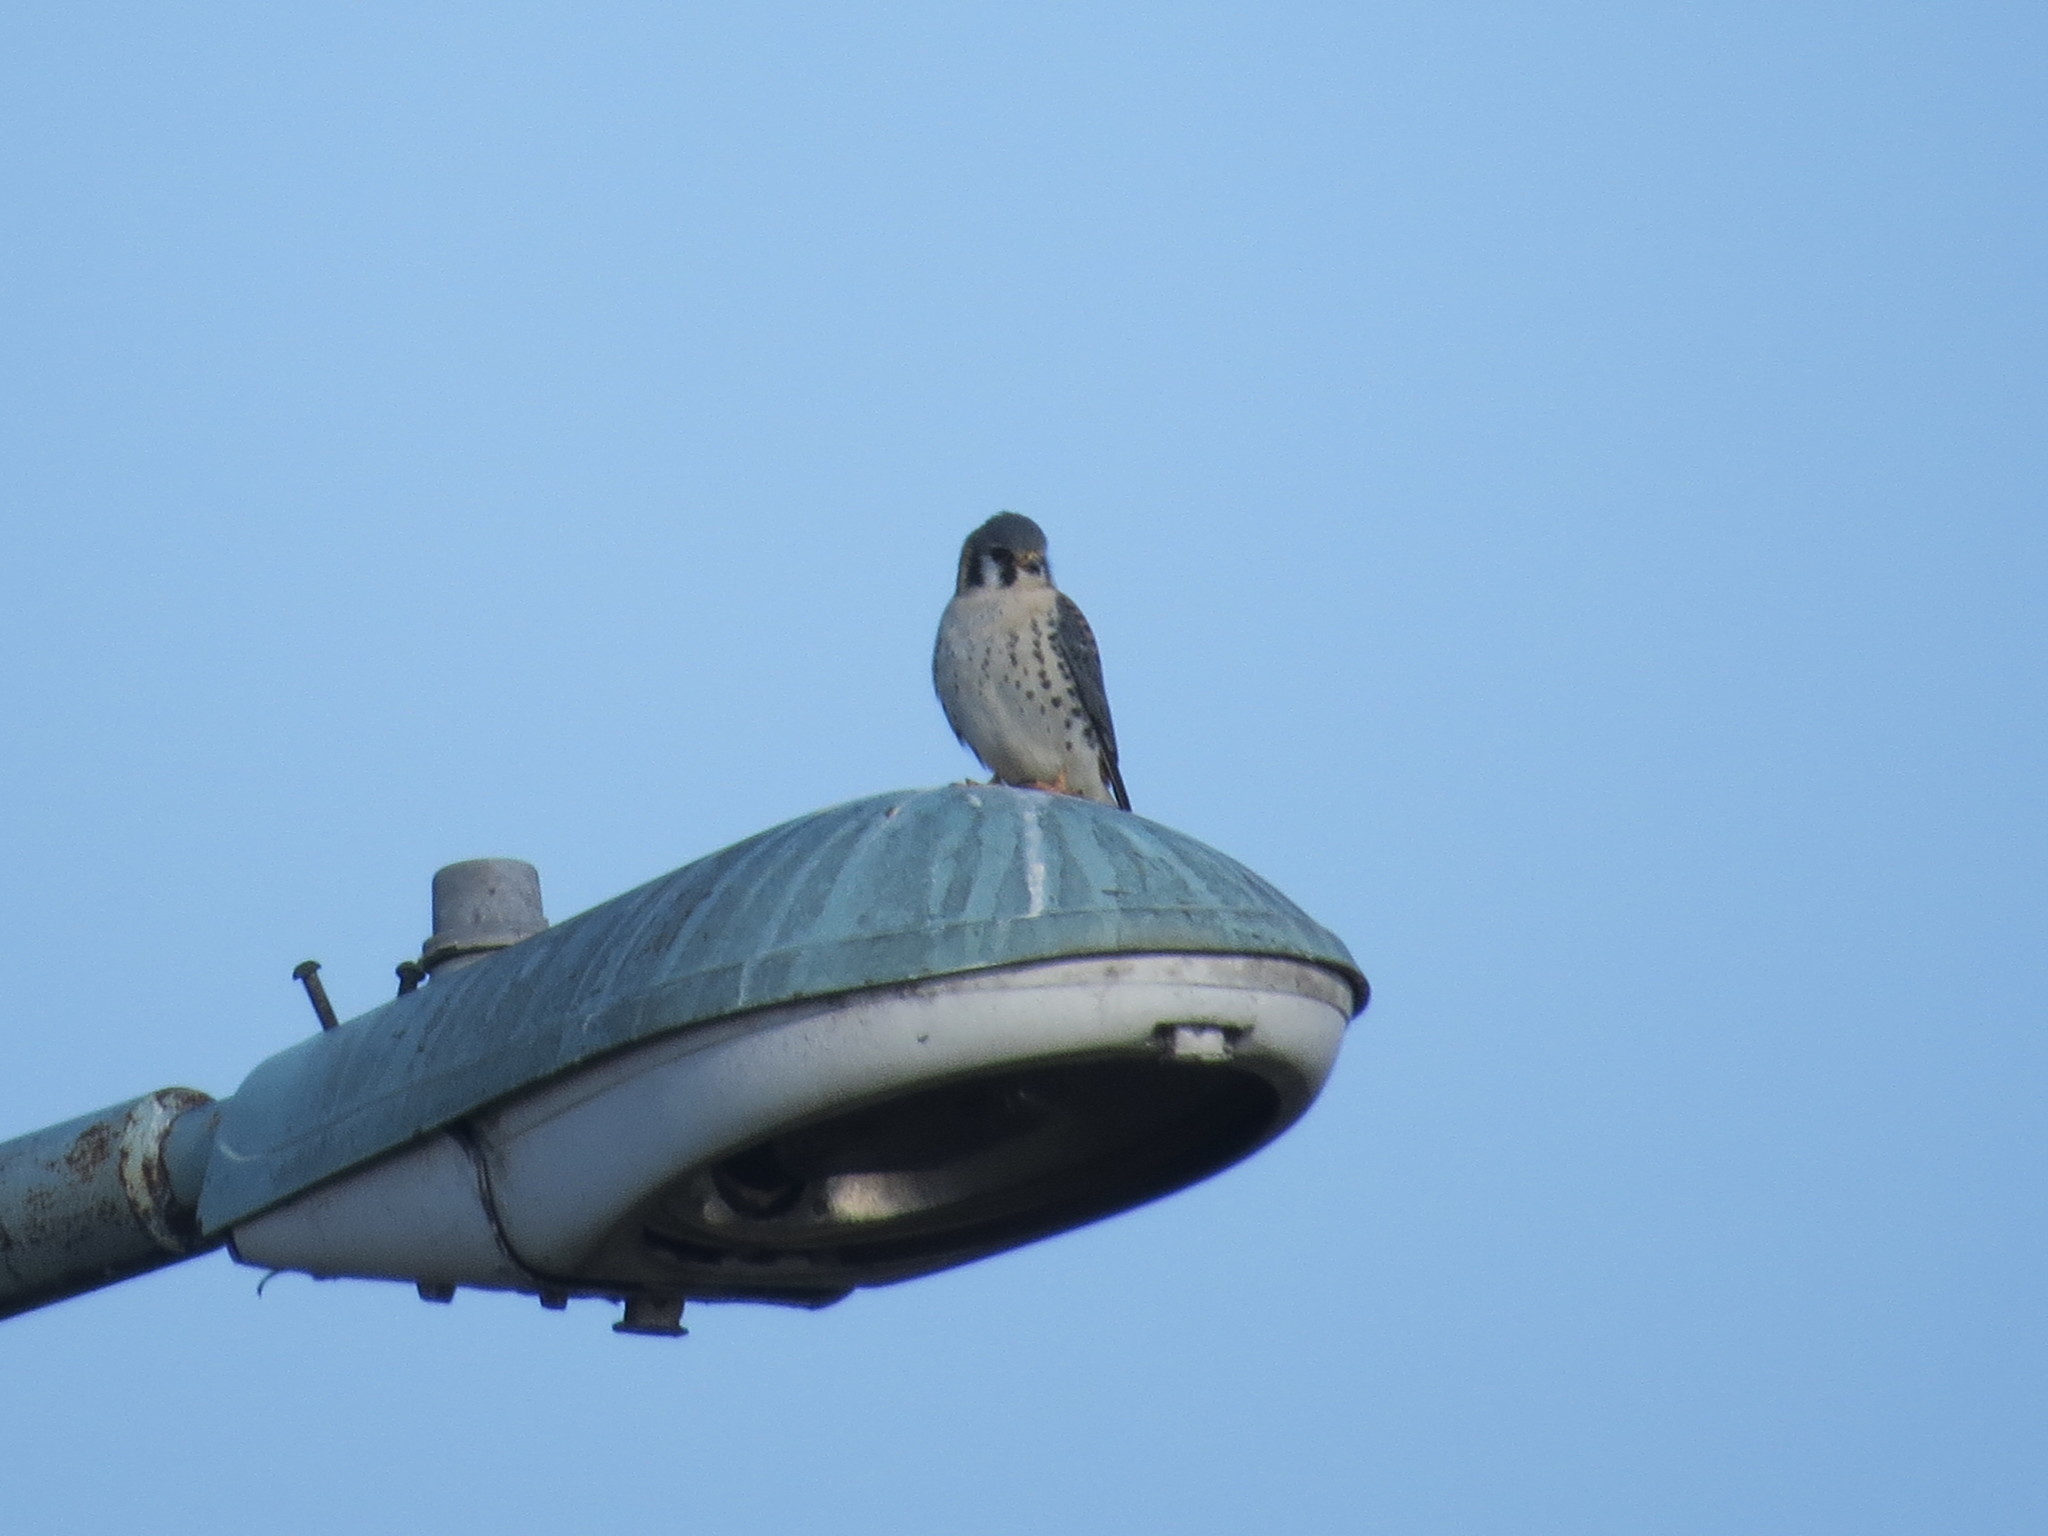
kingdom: Animalia
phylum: Chordata
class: Aves
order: Falconiformes
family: Falconidae
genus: Falco
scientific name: Falco sparverius
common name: American kestrel
